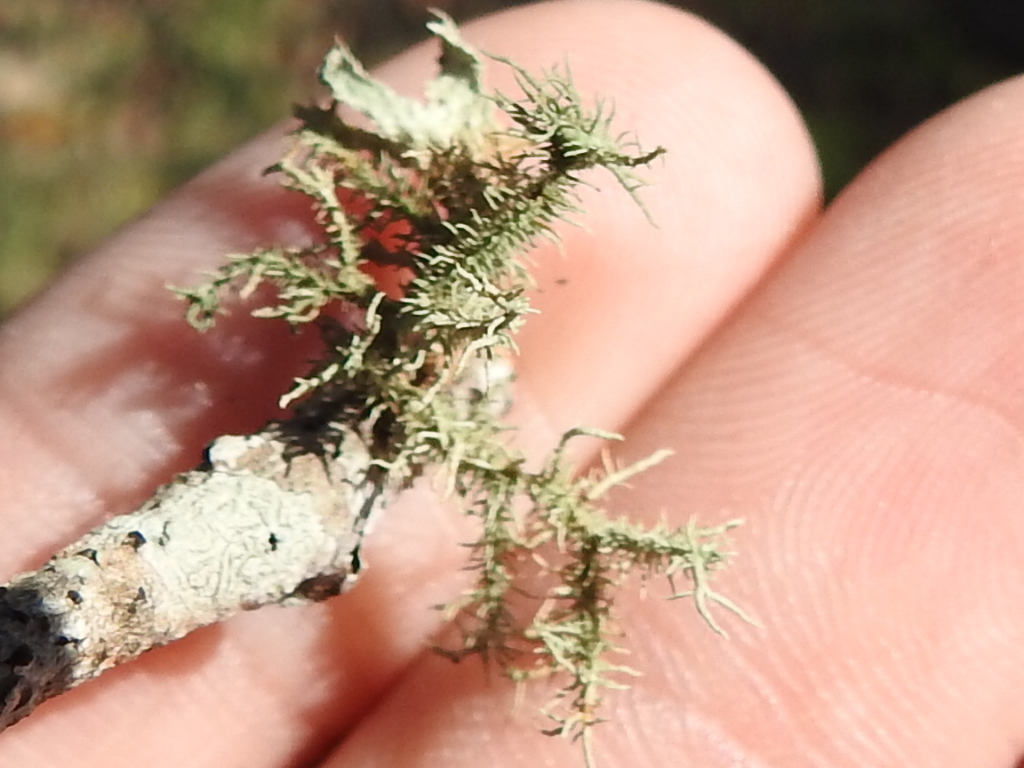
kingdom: Fungi
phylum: Ascomycota
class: Lecanoromycetes
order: Lecanorales
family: Parmeliaceae
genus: Usnea
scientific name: Usnea strigosa
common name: Bushy beard lichen
